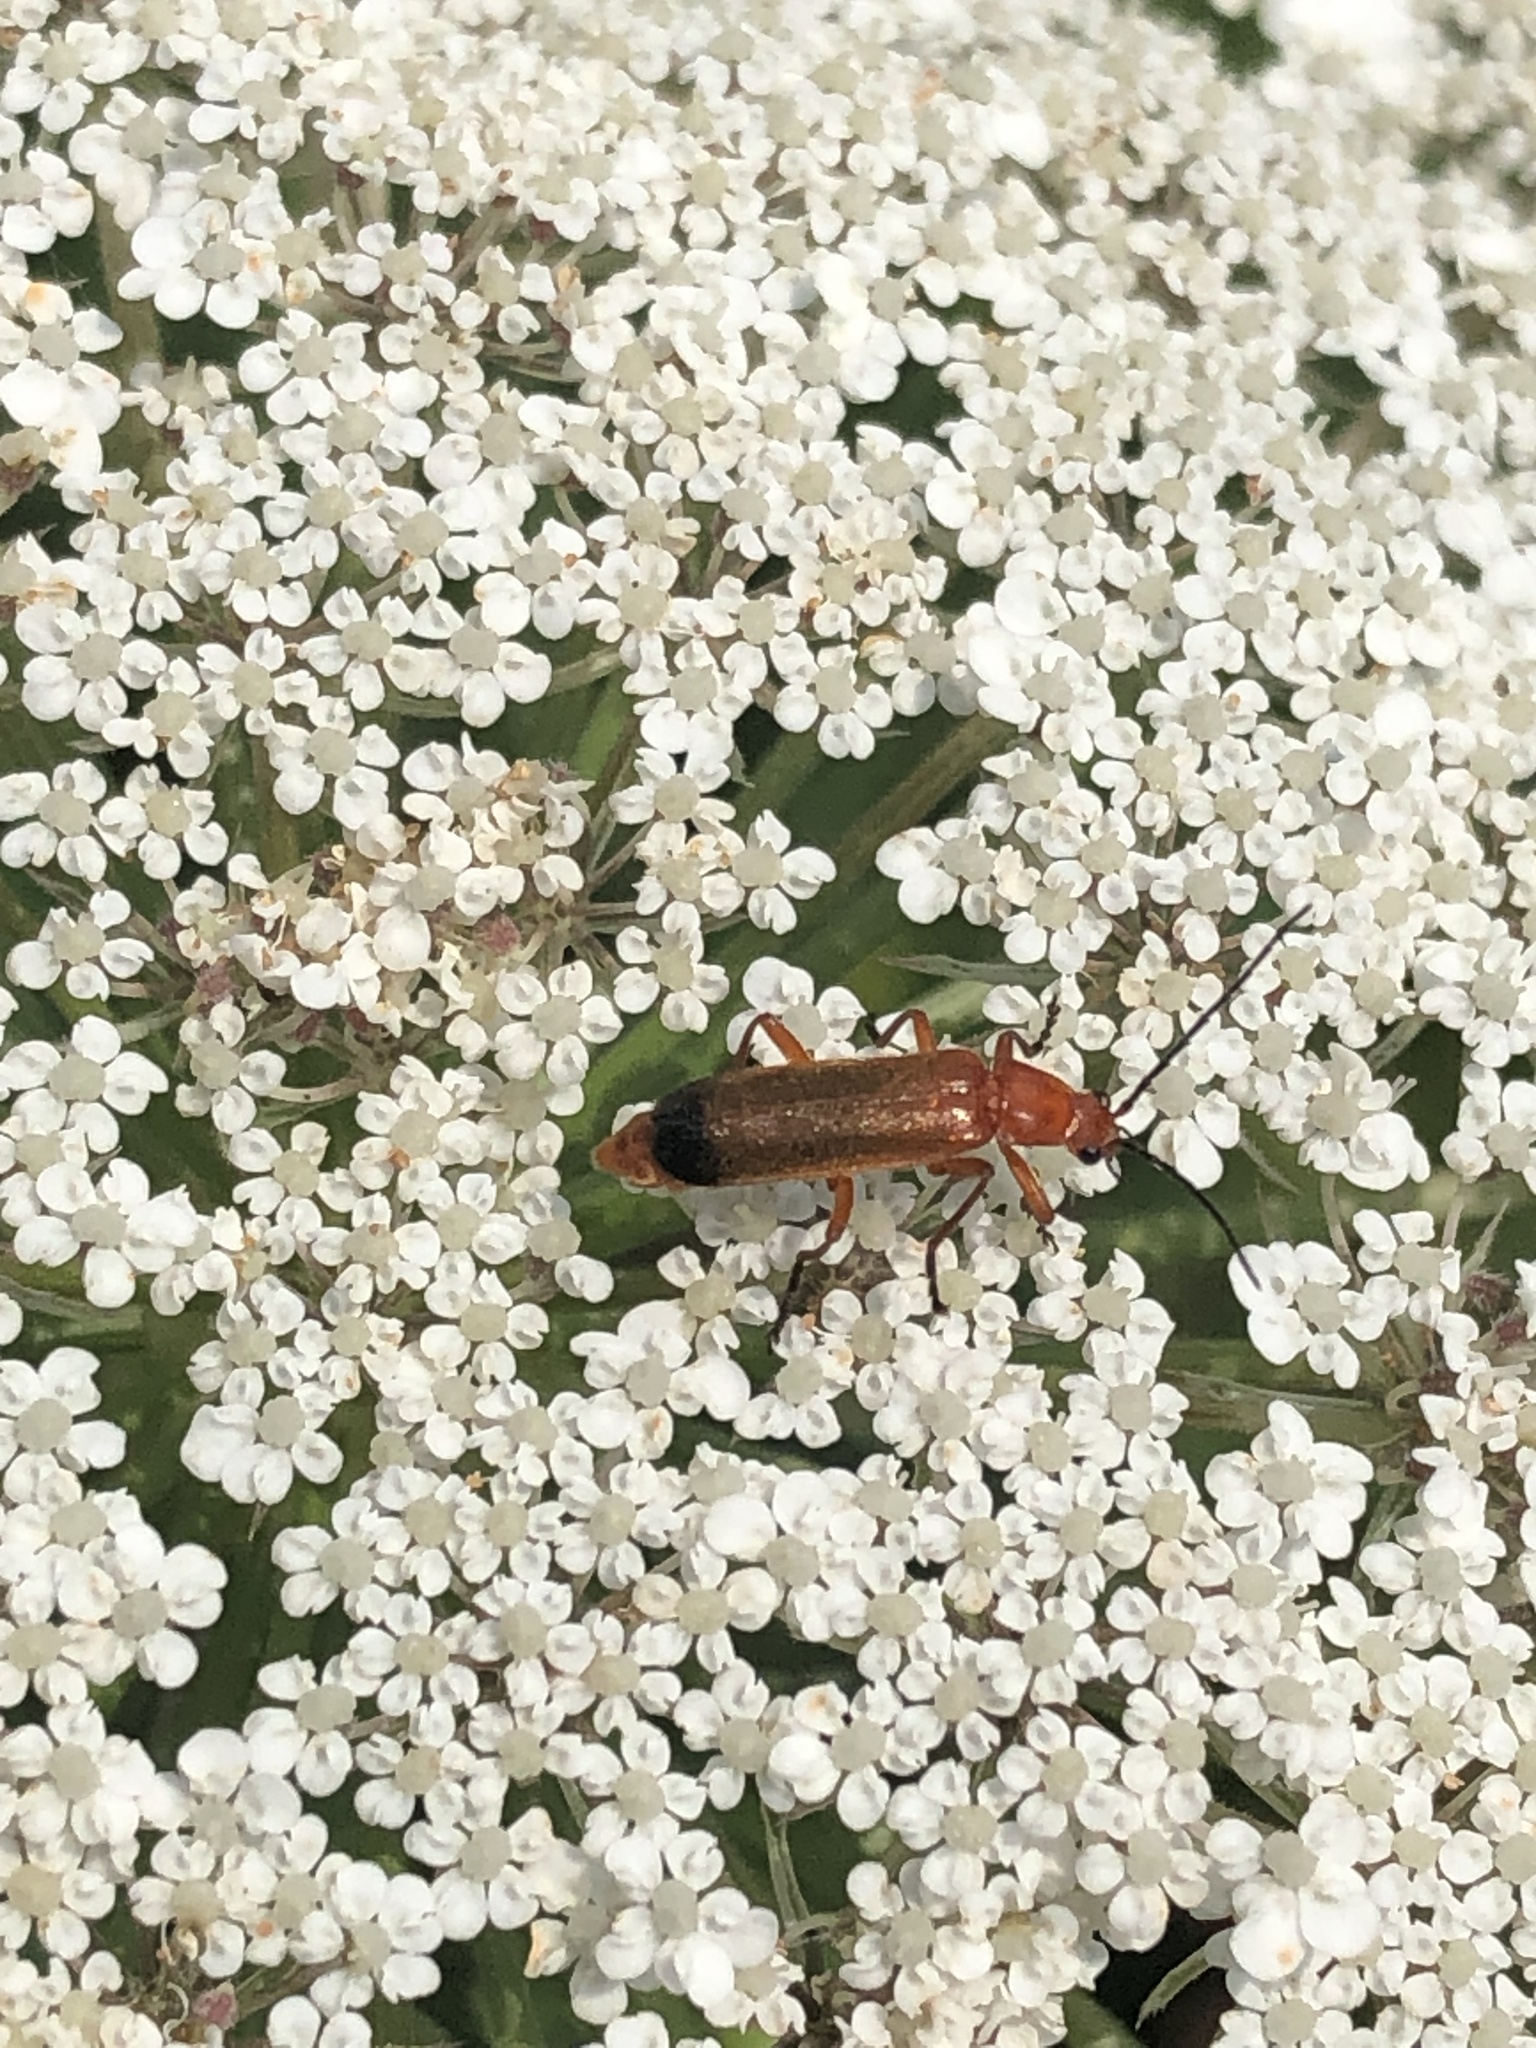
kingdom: Animalia
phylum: Arthropoda
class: Insecta
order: Coleoptera
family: Cantharidae
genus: Rhagonycha
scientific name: Rhagonycha fulva
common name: Common red soldier beetle
